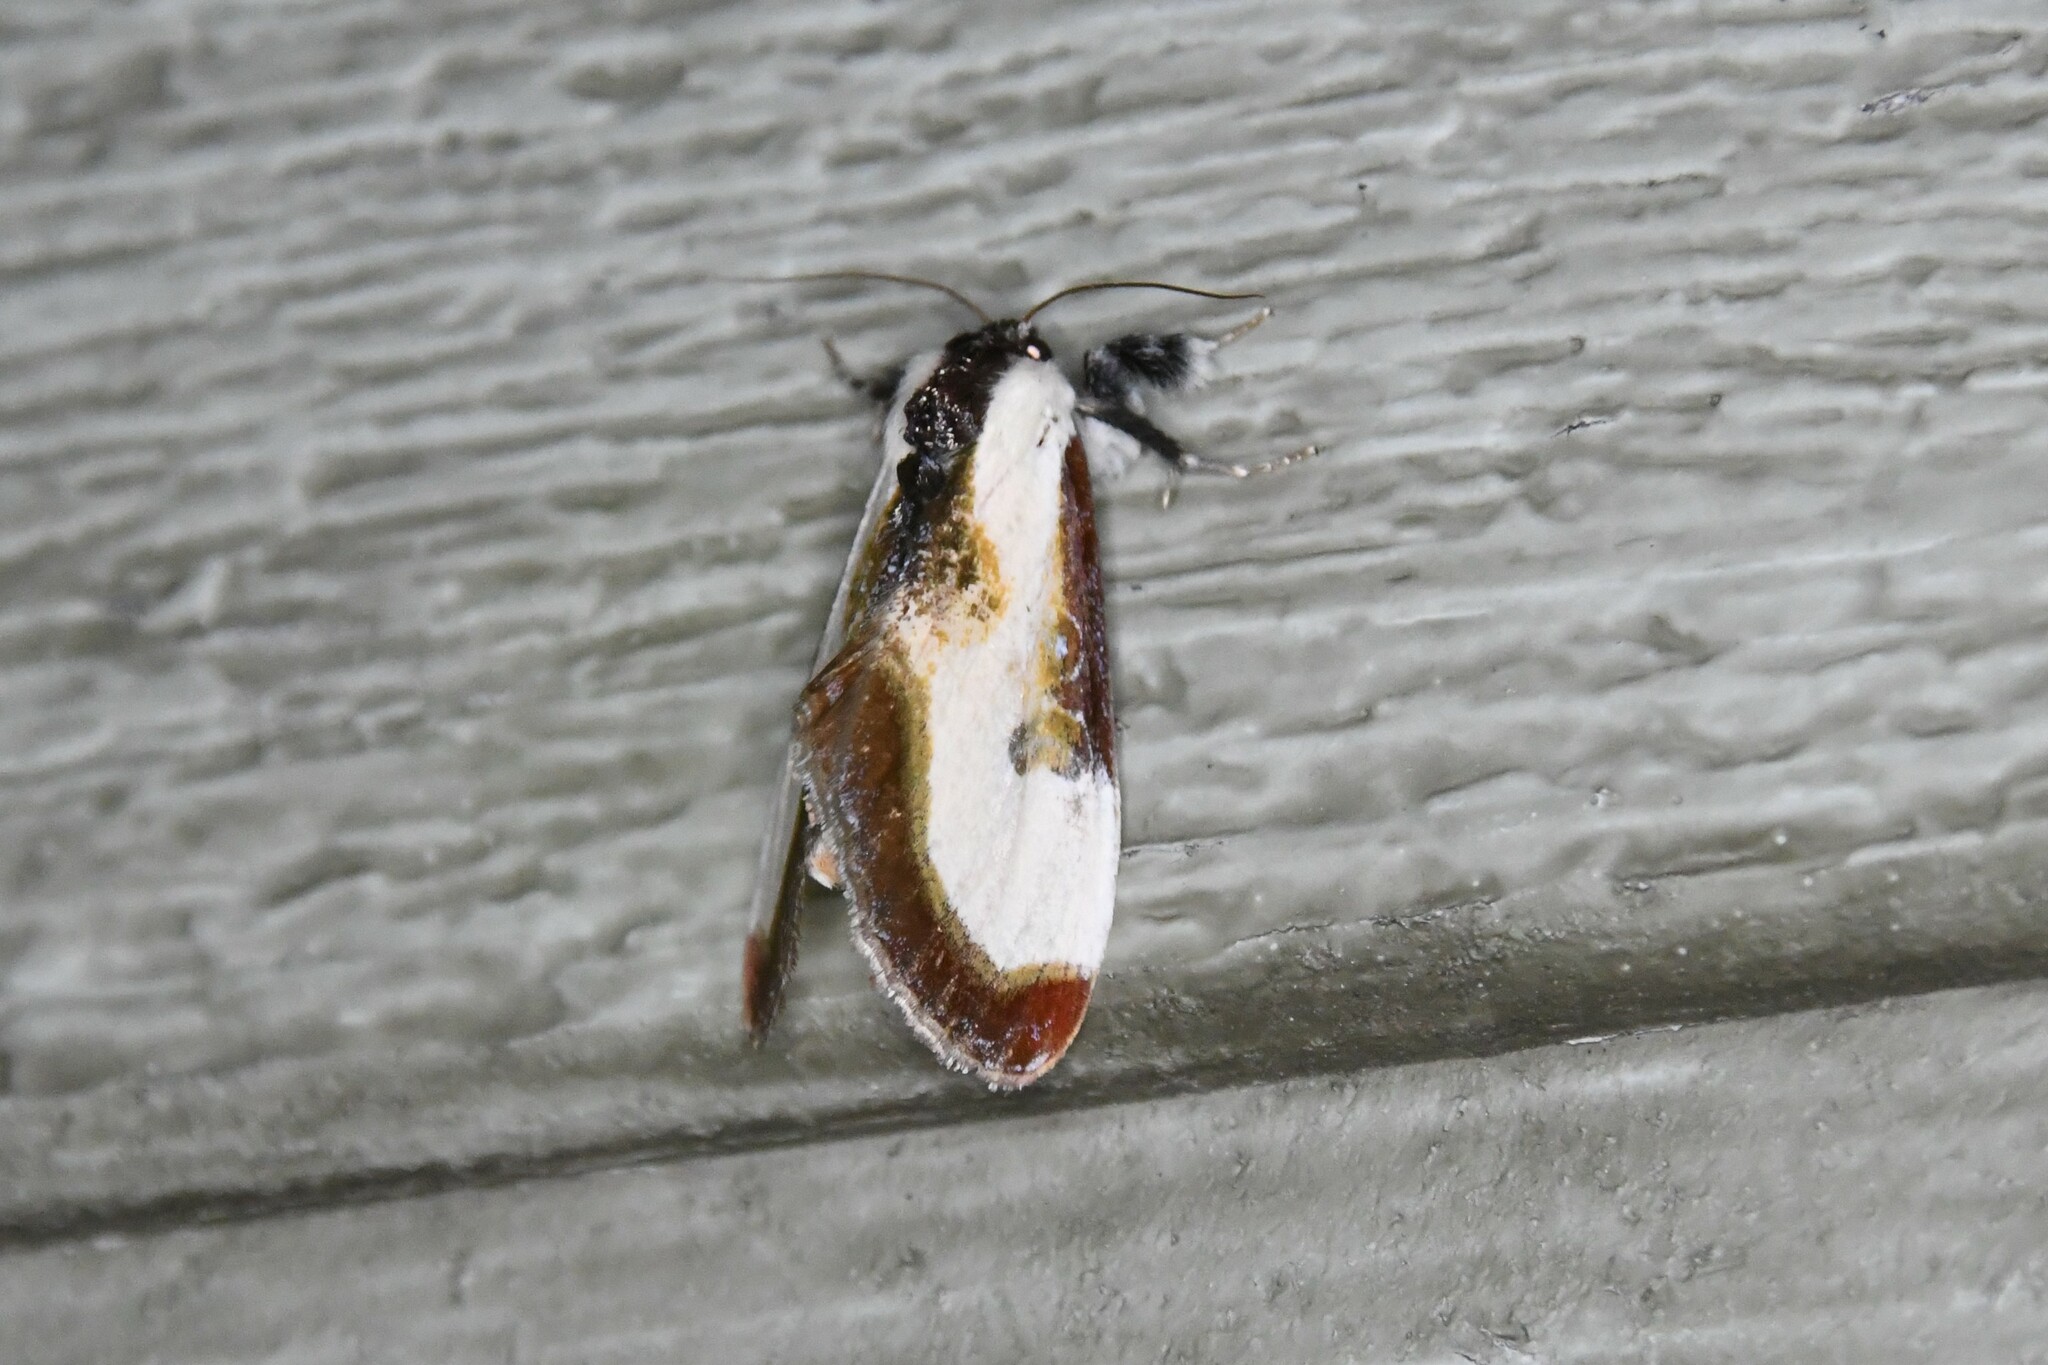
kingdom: Animalia
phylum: Arthropoda
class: Insecta
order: Lepidoptera
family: Noctuidae
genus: Eudryas
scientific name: Eudryas grata
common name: Beautiful wood-nymph
